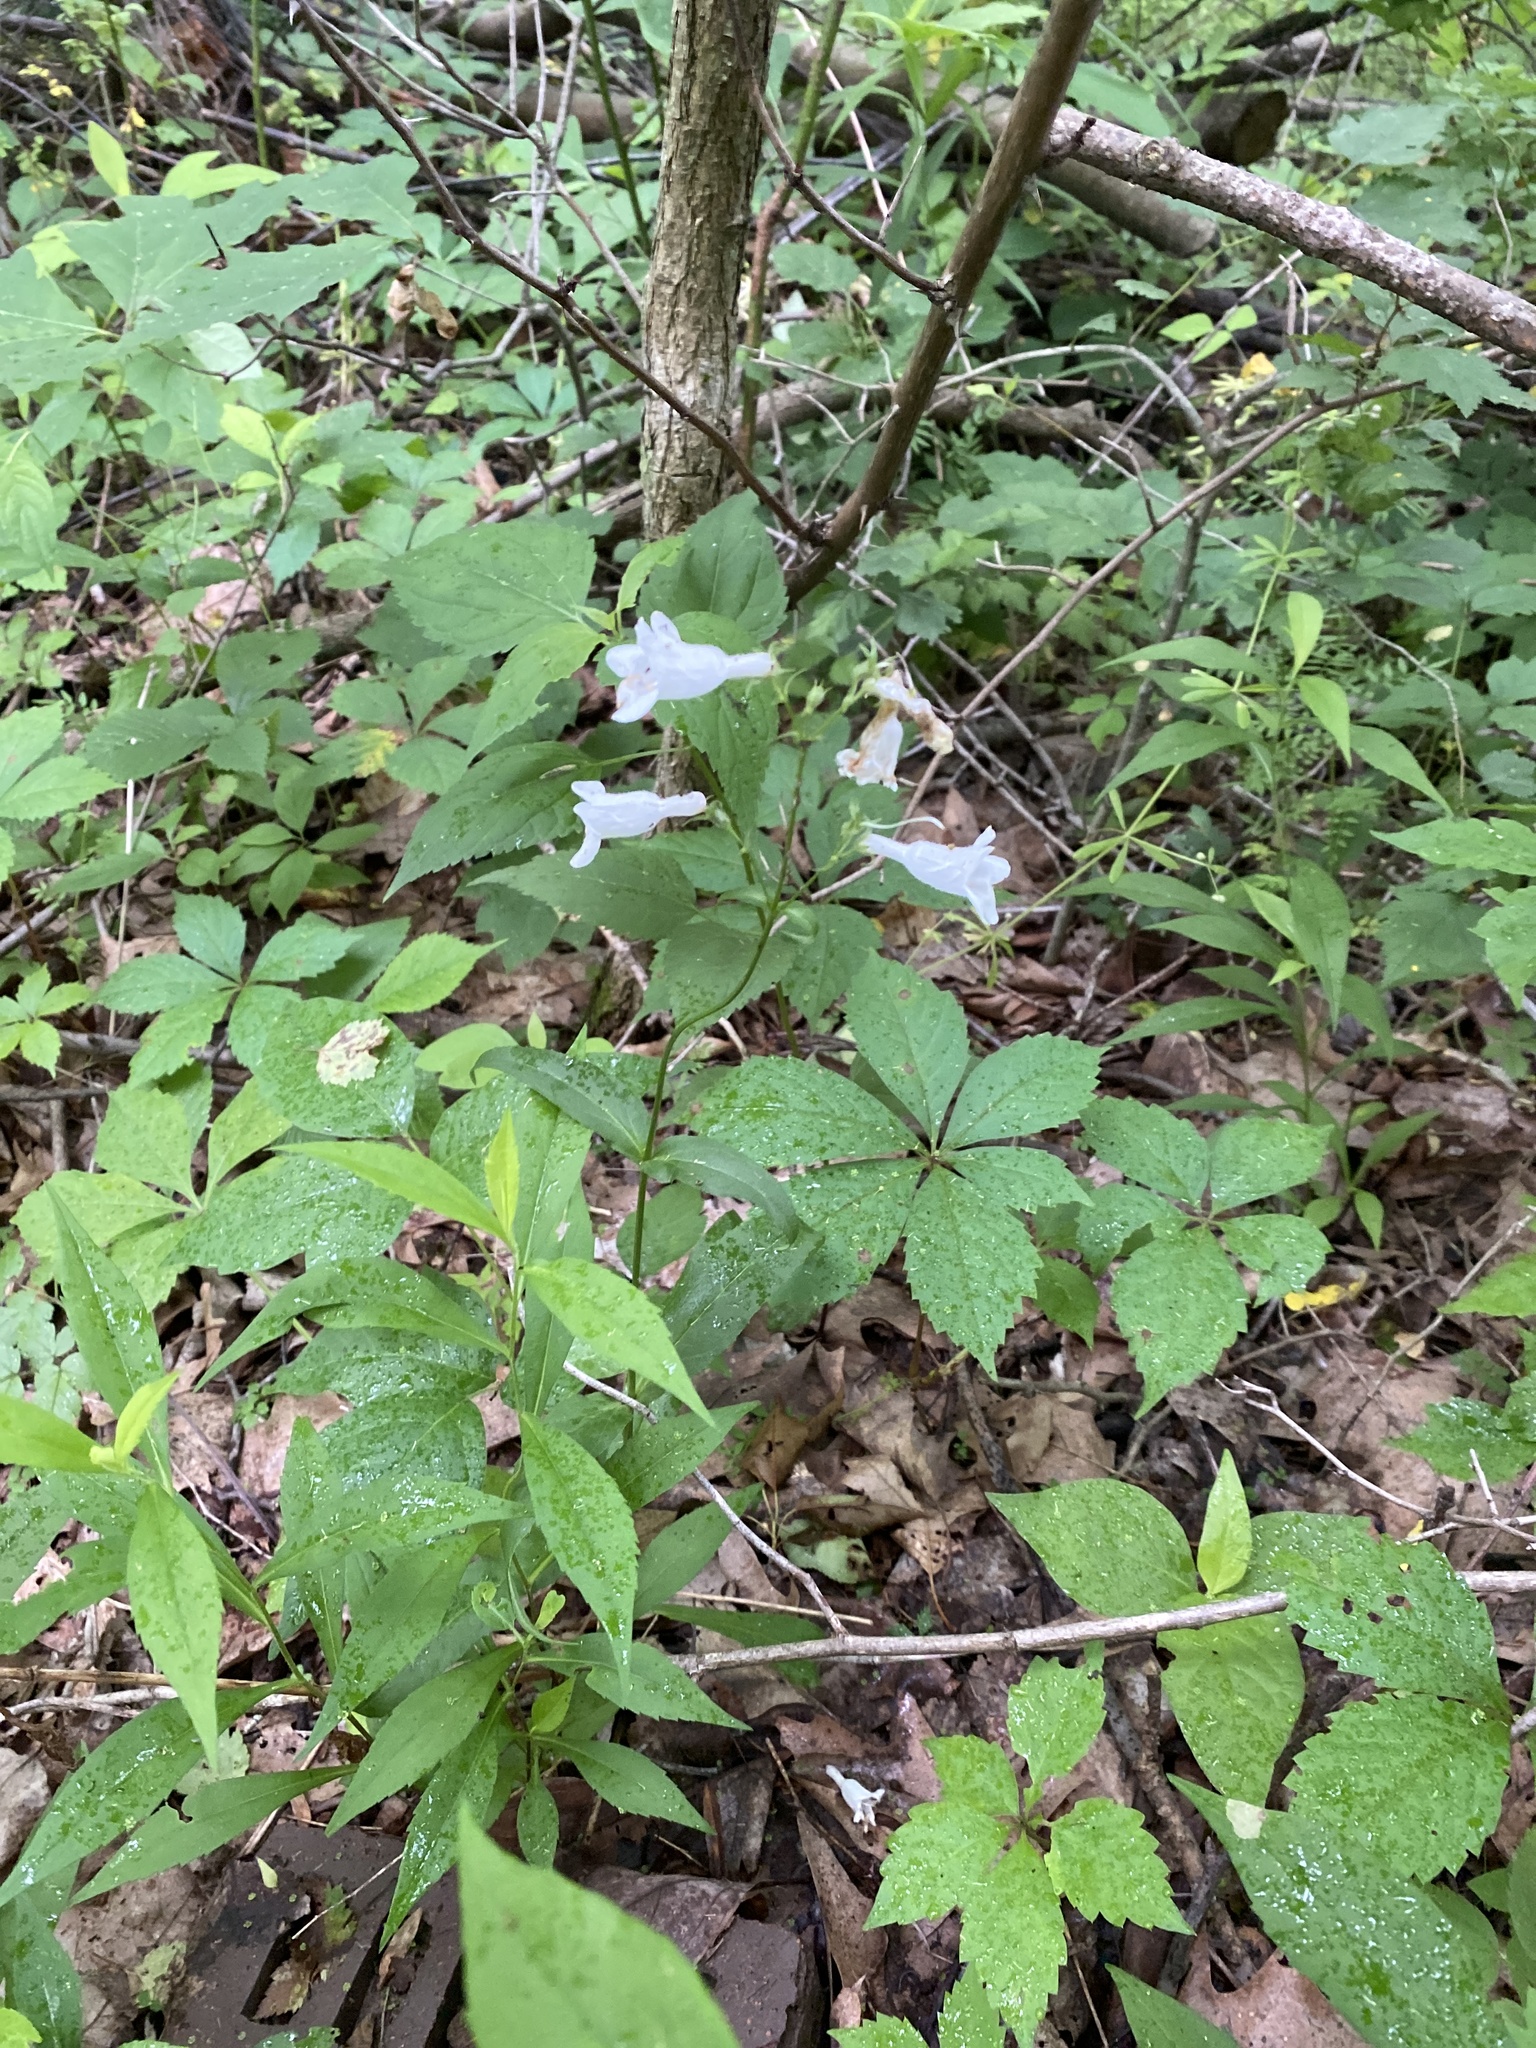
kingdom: Plantae
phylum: Tracheophyta
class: Magnoliopsida
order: Lamiales
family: Plantaginaceae
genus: Penstemon
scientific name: Penstemon digitalis
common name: Foxglove beardtongue
